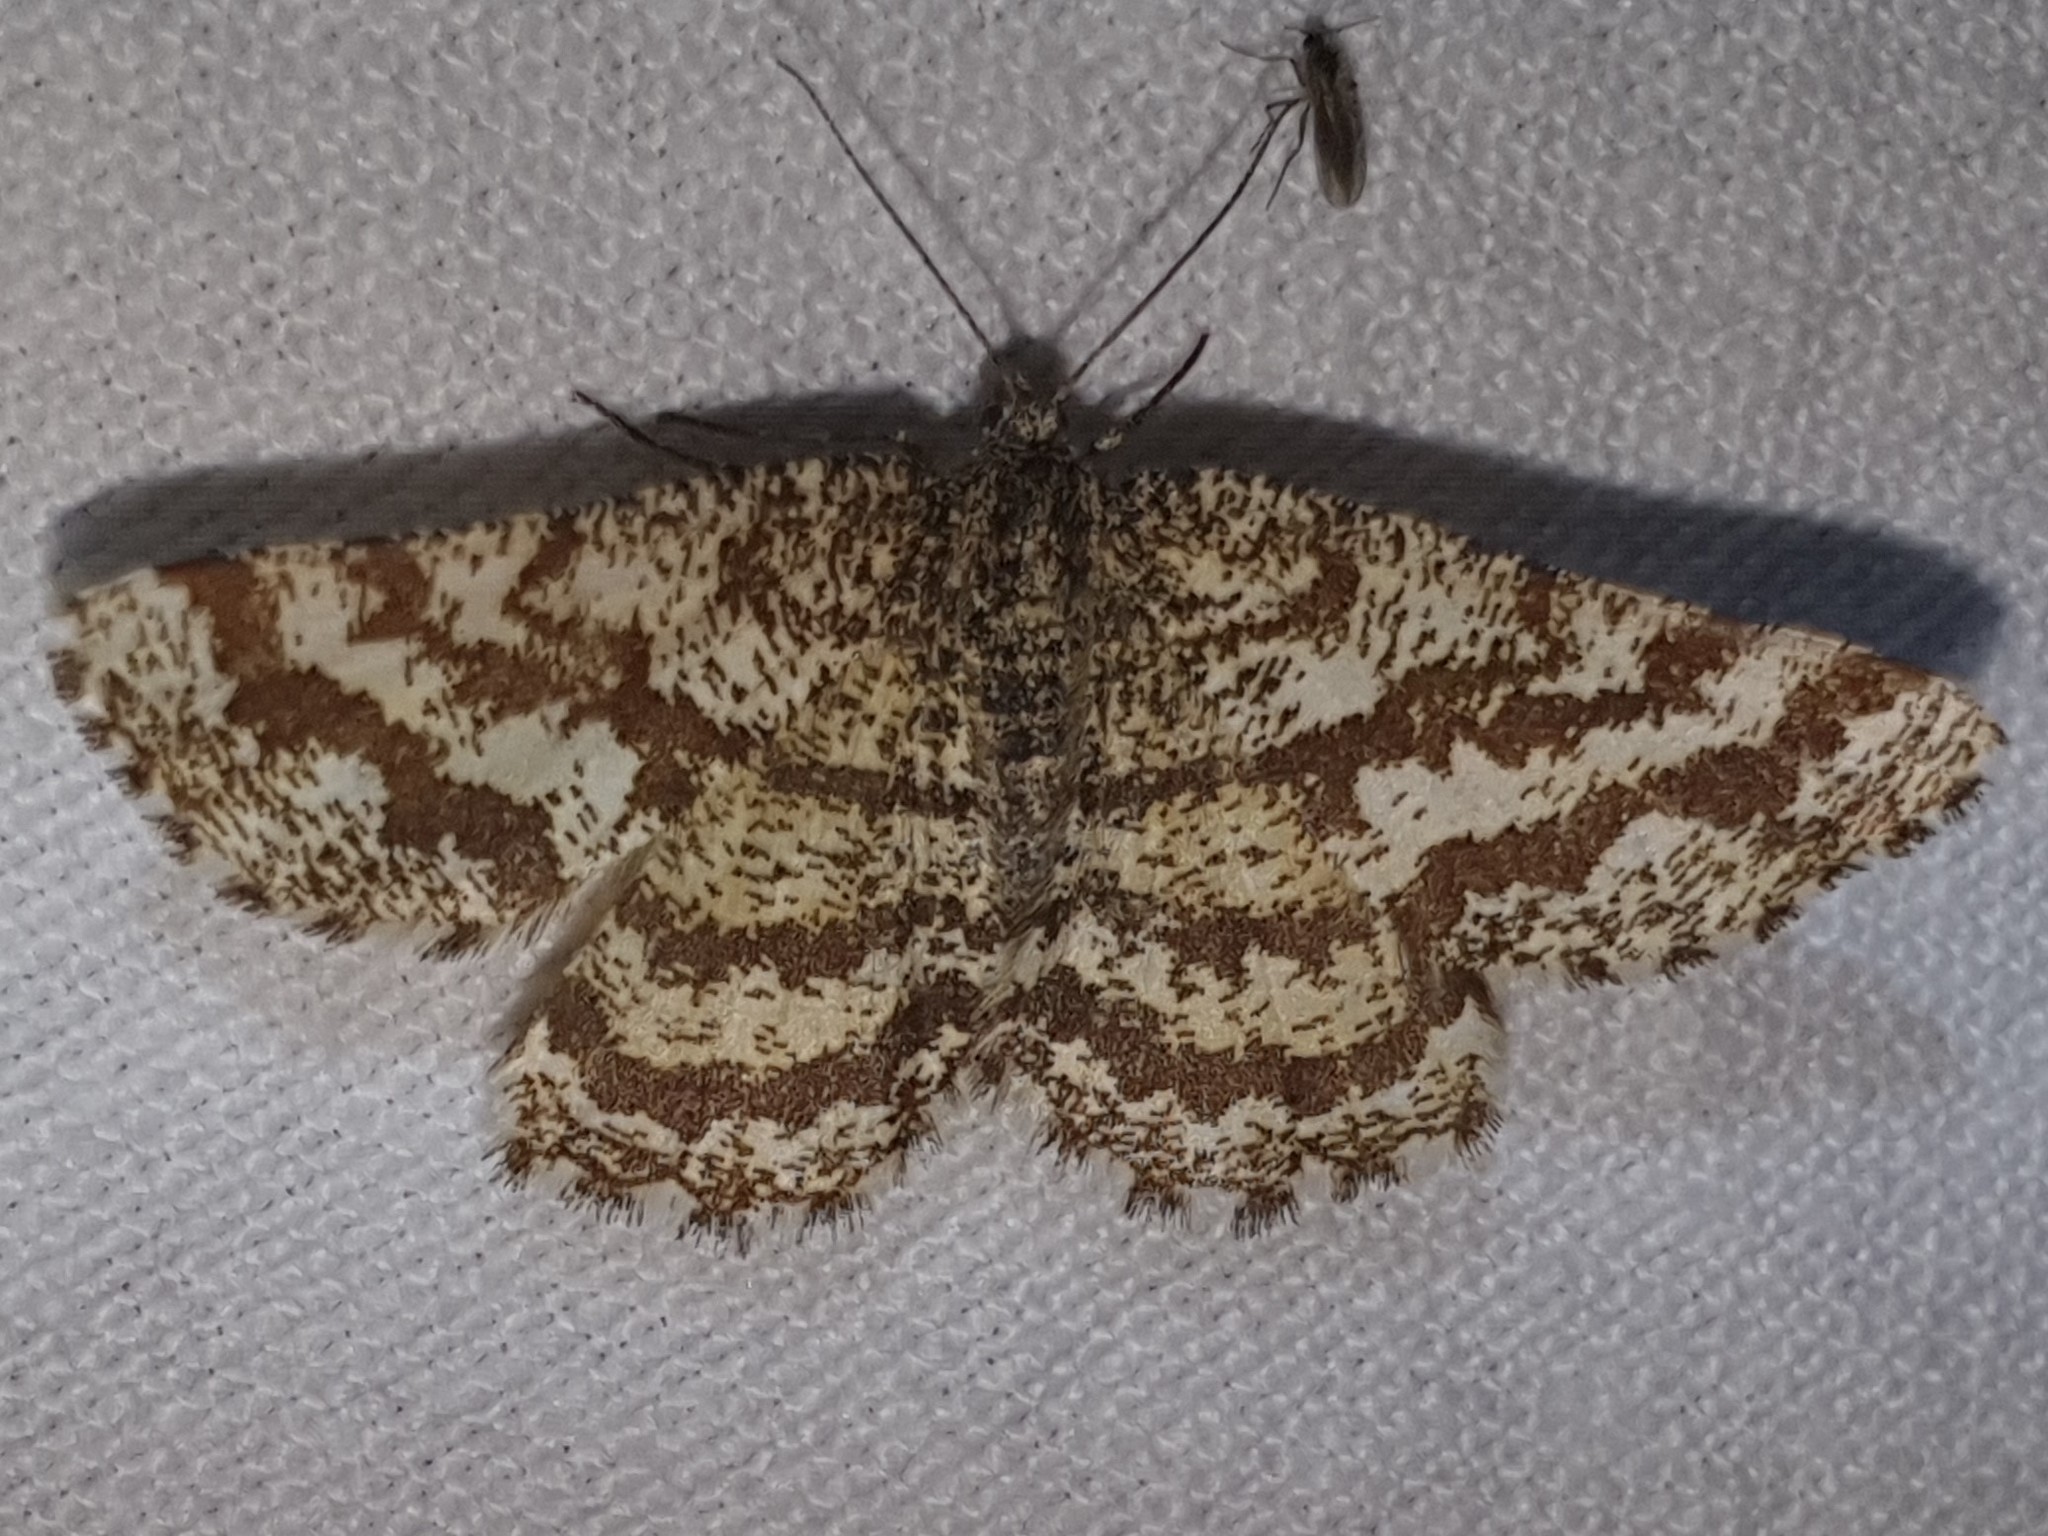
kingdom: Animalia
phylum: Arthropoda
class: Insecta
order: Lepidoptera
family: Geometridae
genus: Ematurga
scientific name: Ematurga atomaria
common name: Common heath
